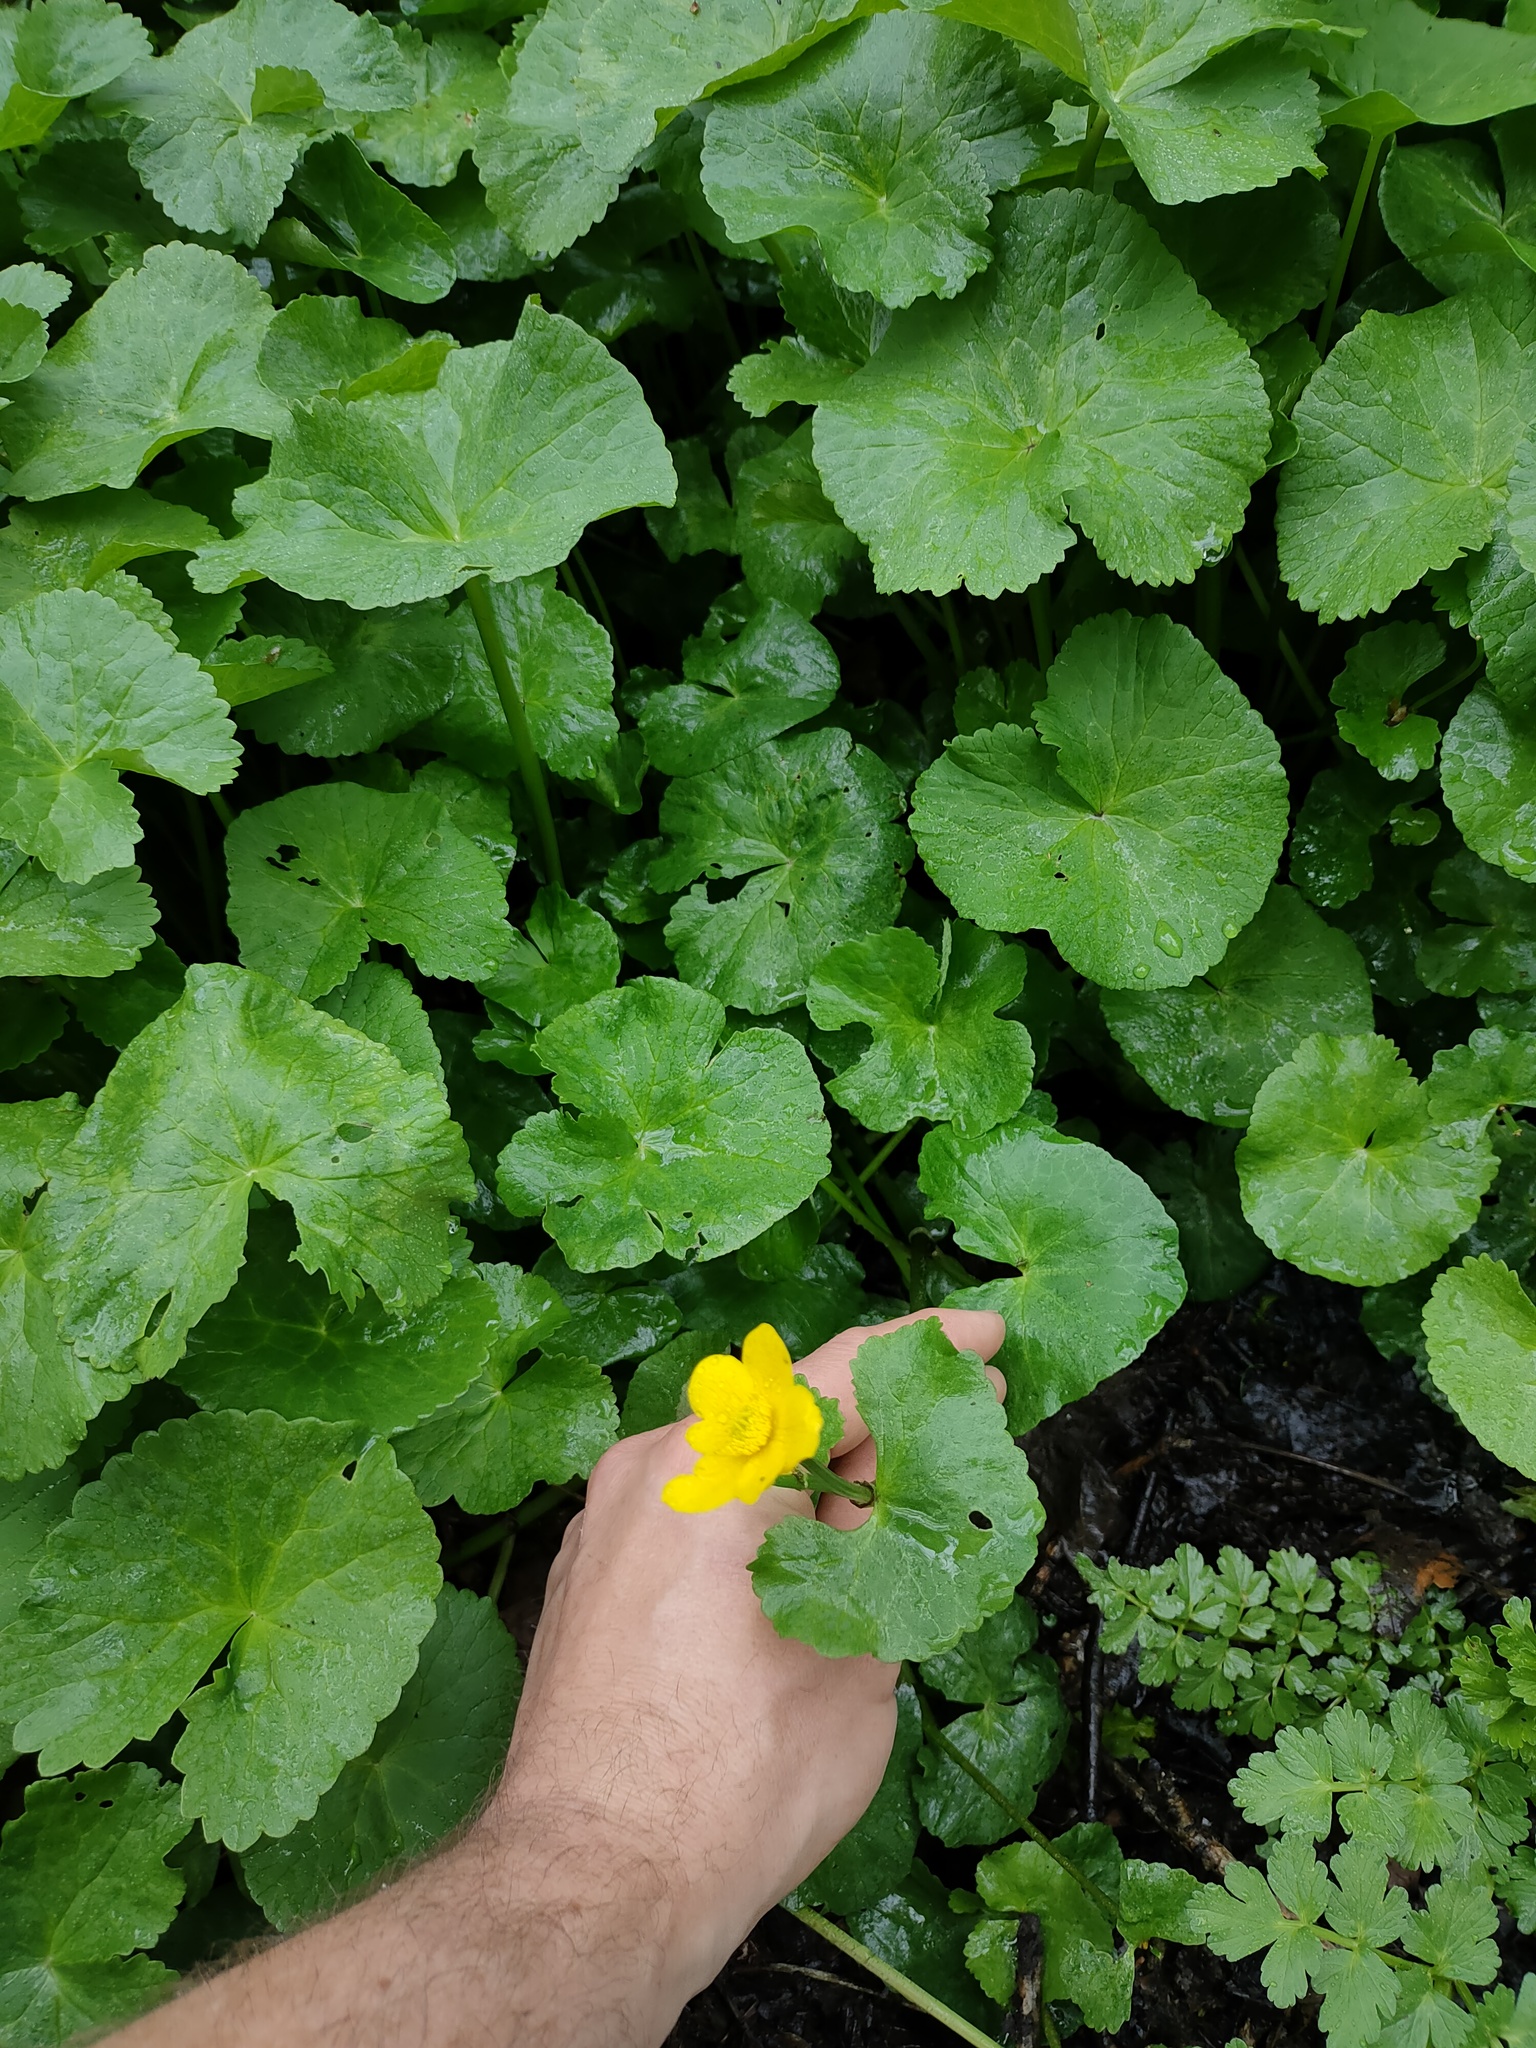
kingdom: Plantae
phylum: Tracheophyta
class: Magnoliopsida
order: Ranunculales
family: Ranunculaceae
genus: Caltha
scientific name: Caltha palustris
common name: Marsh marigold
